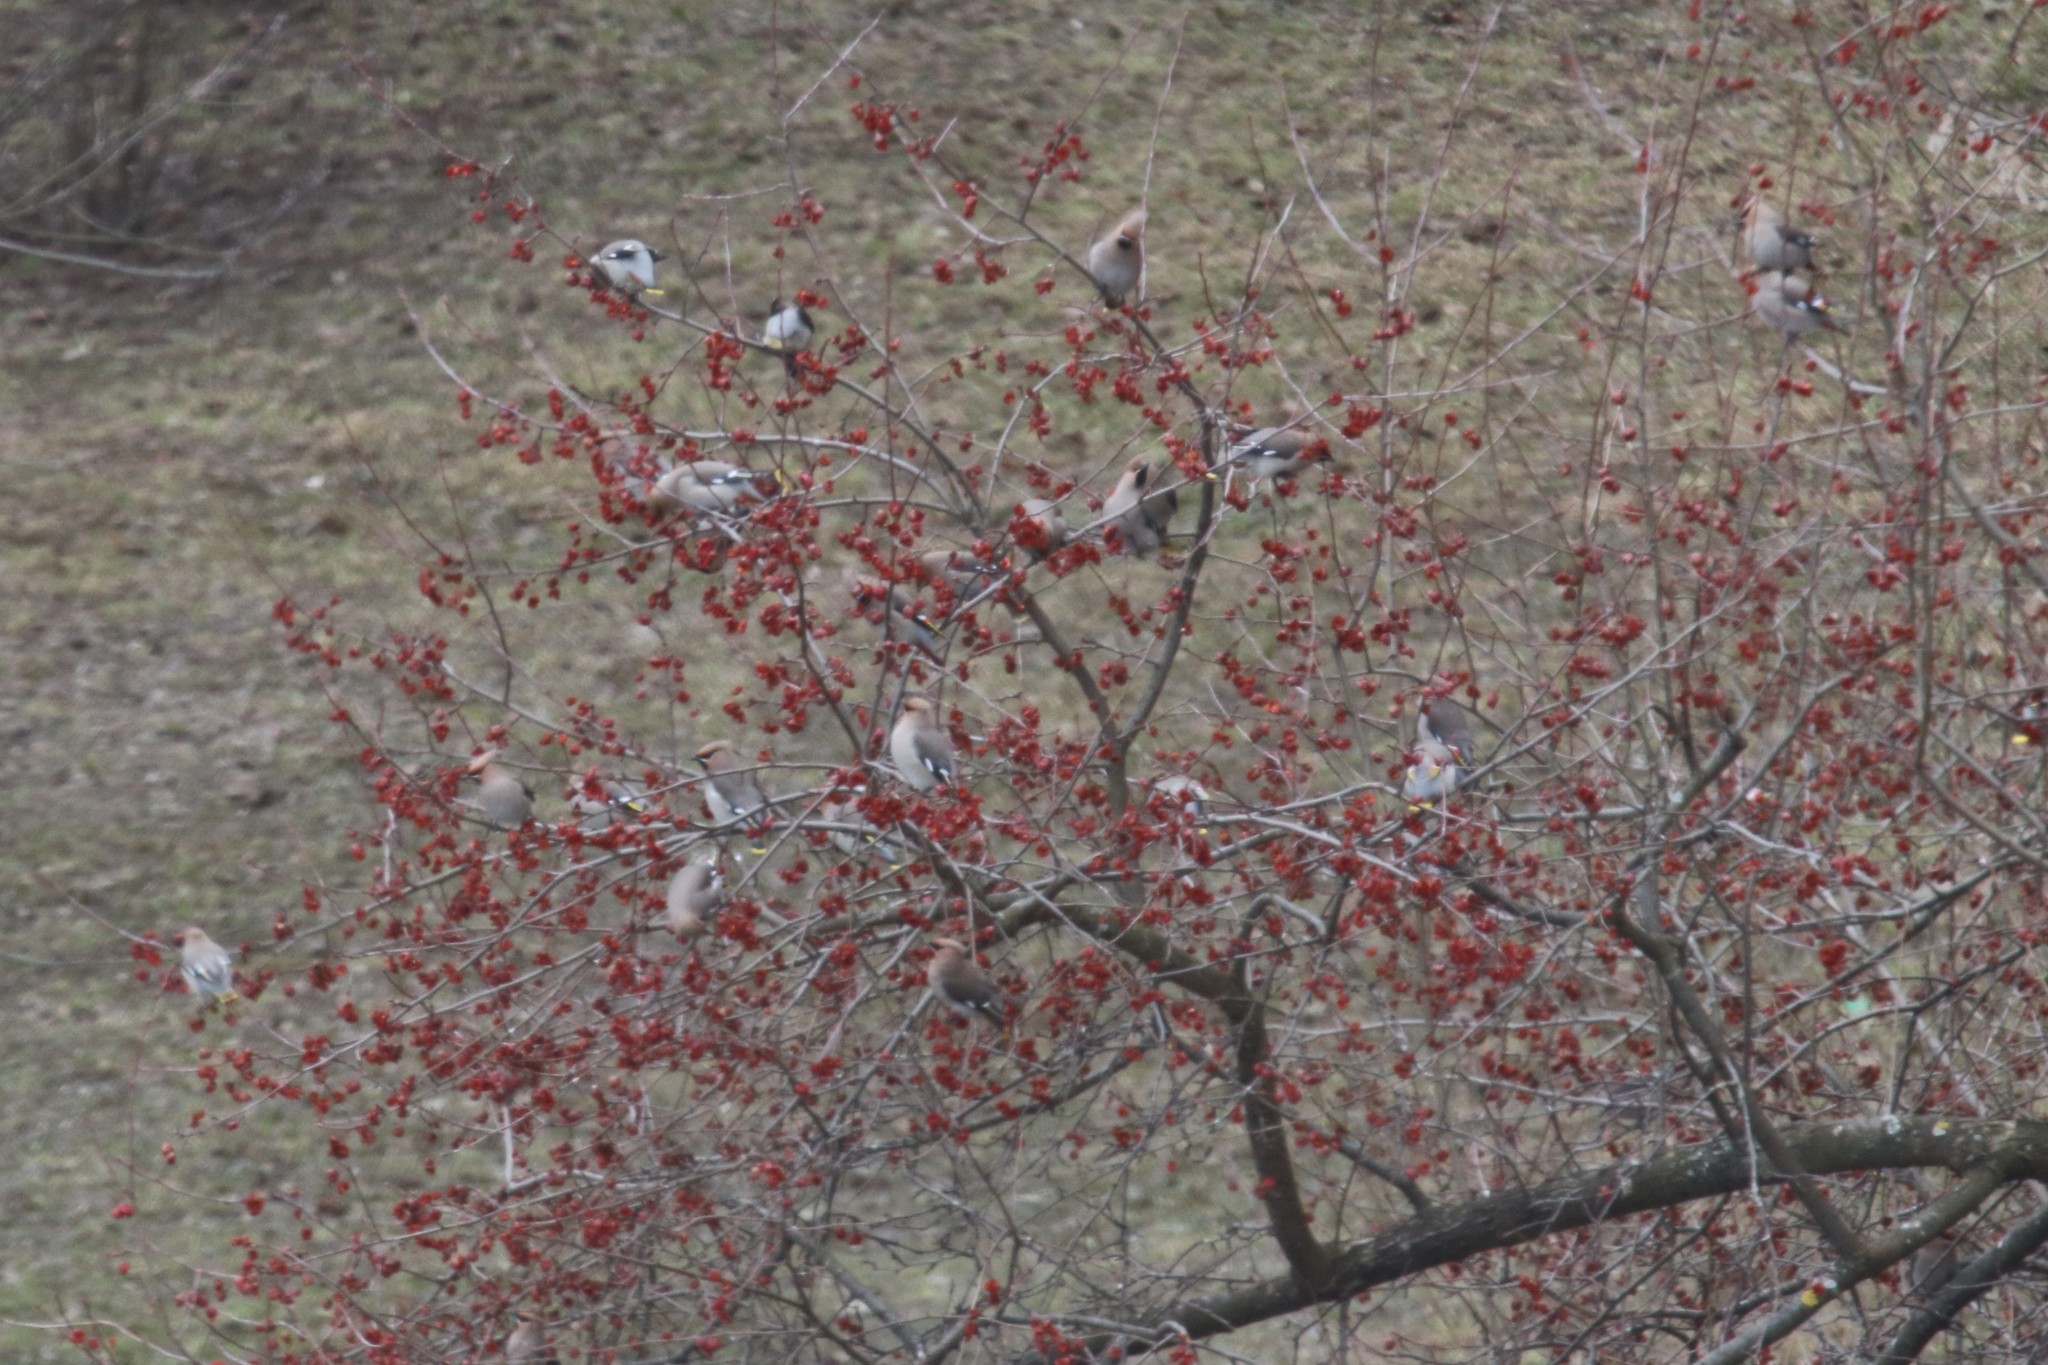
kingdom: Animalia
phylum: Chordata
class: Aves
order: Passeriformes
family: Bombycillidae
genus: Bombycilla
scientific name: Bombycilla garrulus
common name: Bohemian waxwing
